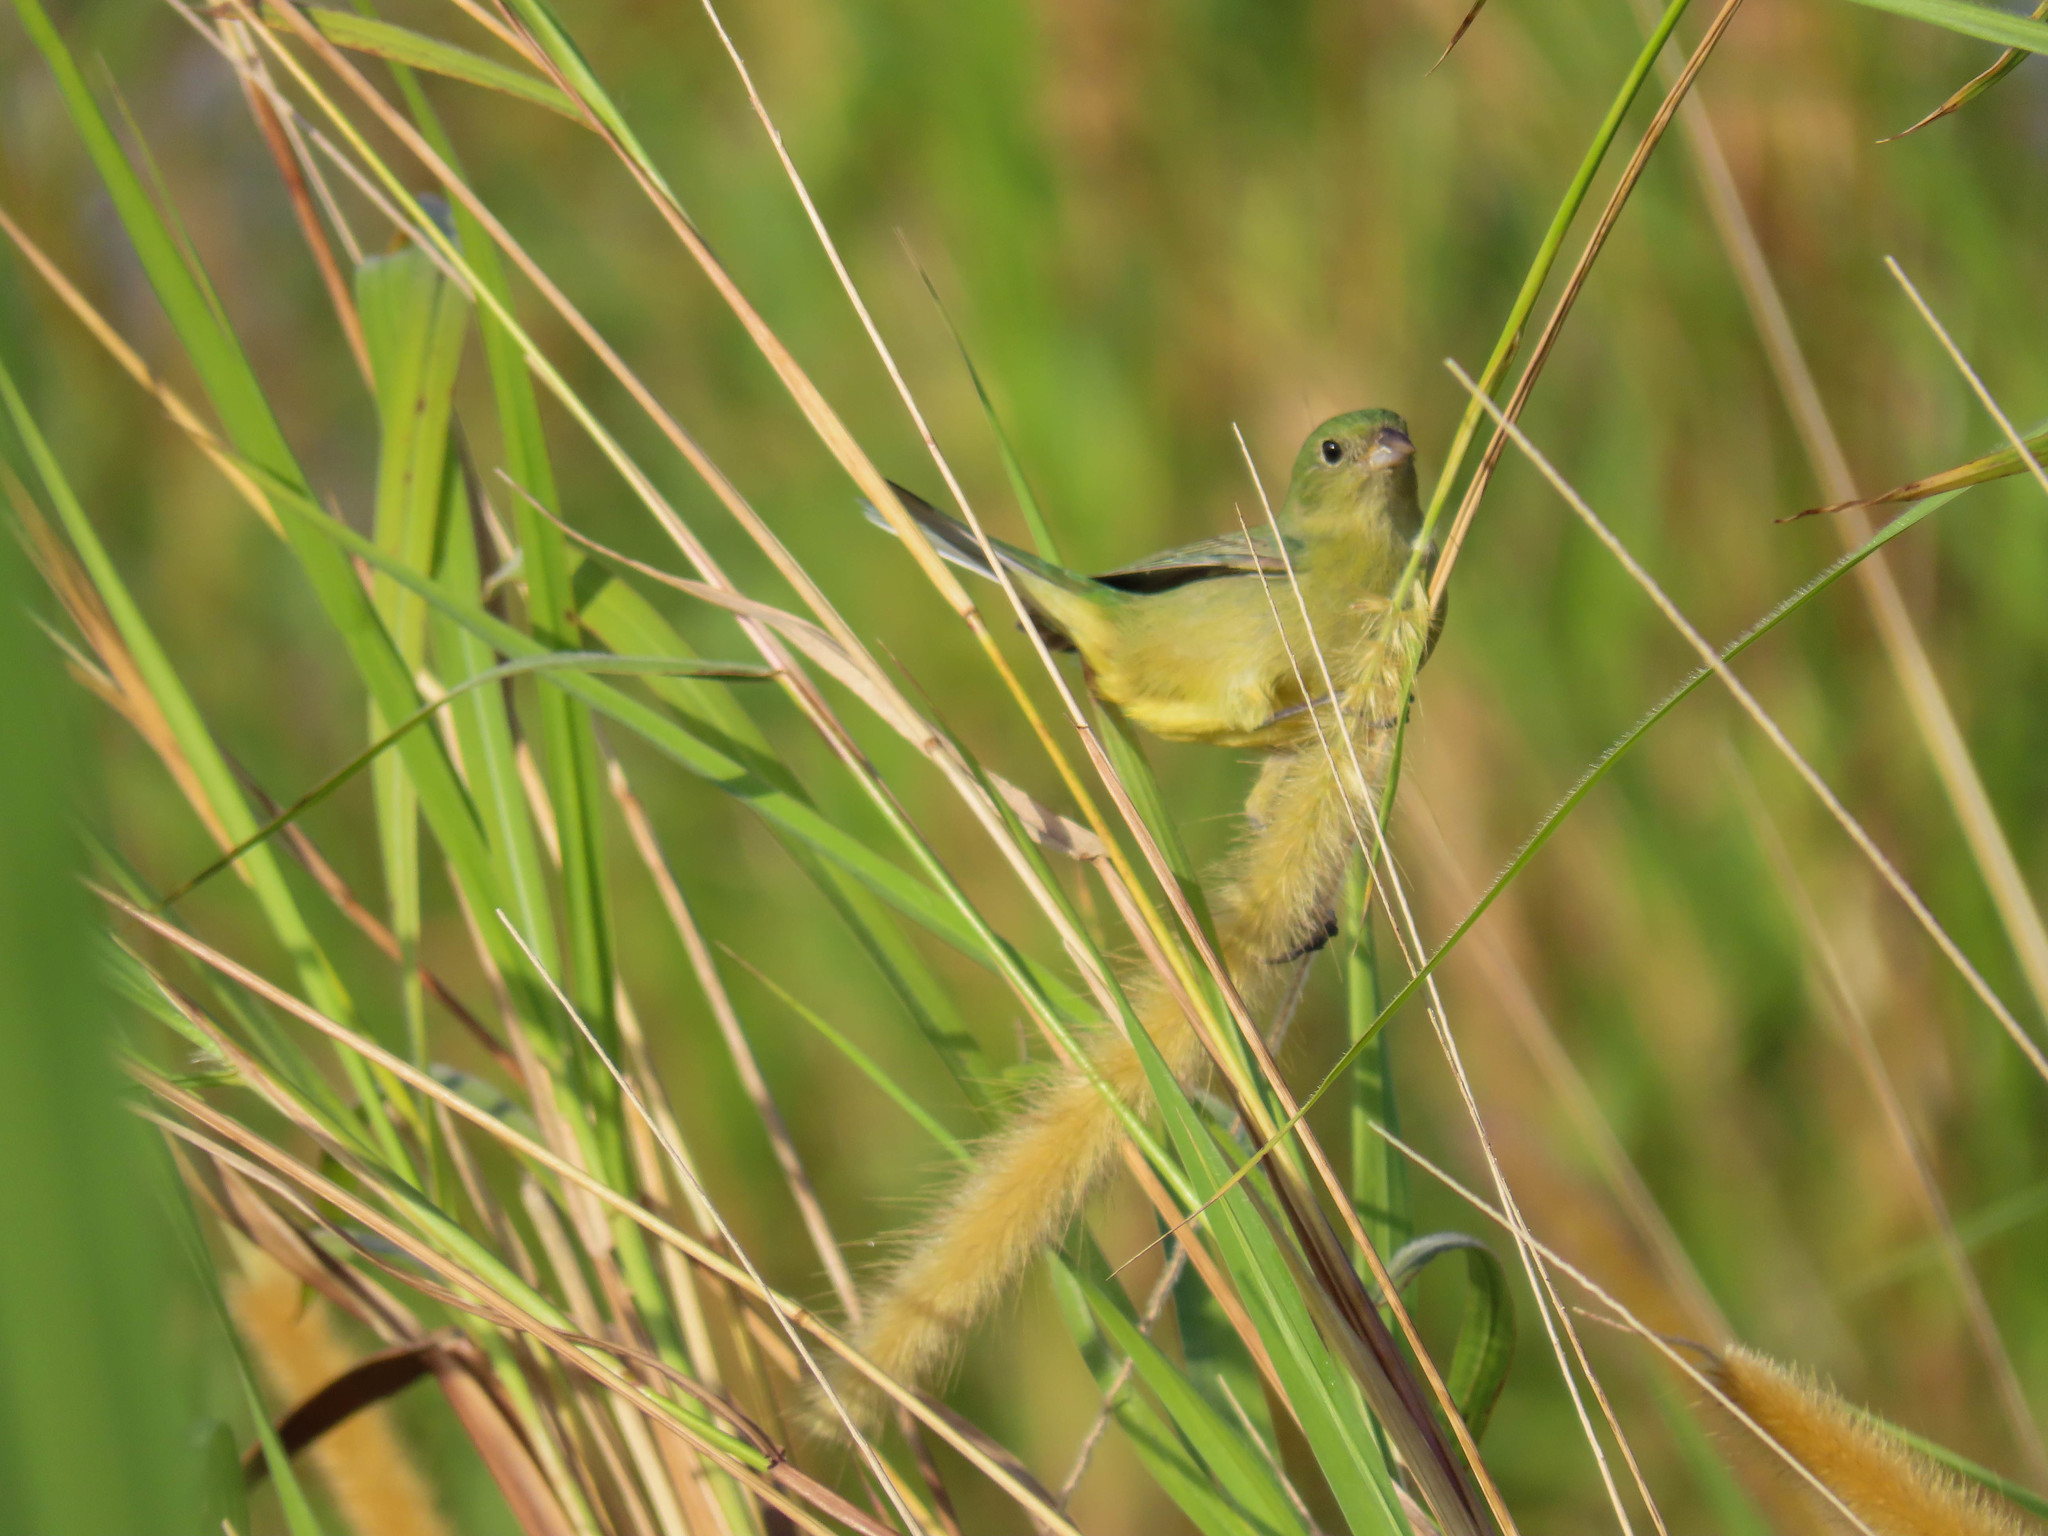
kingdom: Animalia
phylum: Chordata
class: Aves
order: Passeriformes
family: Cardinalidae
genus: Passerina
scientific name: Passerina ciris
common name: Painted bunting
